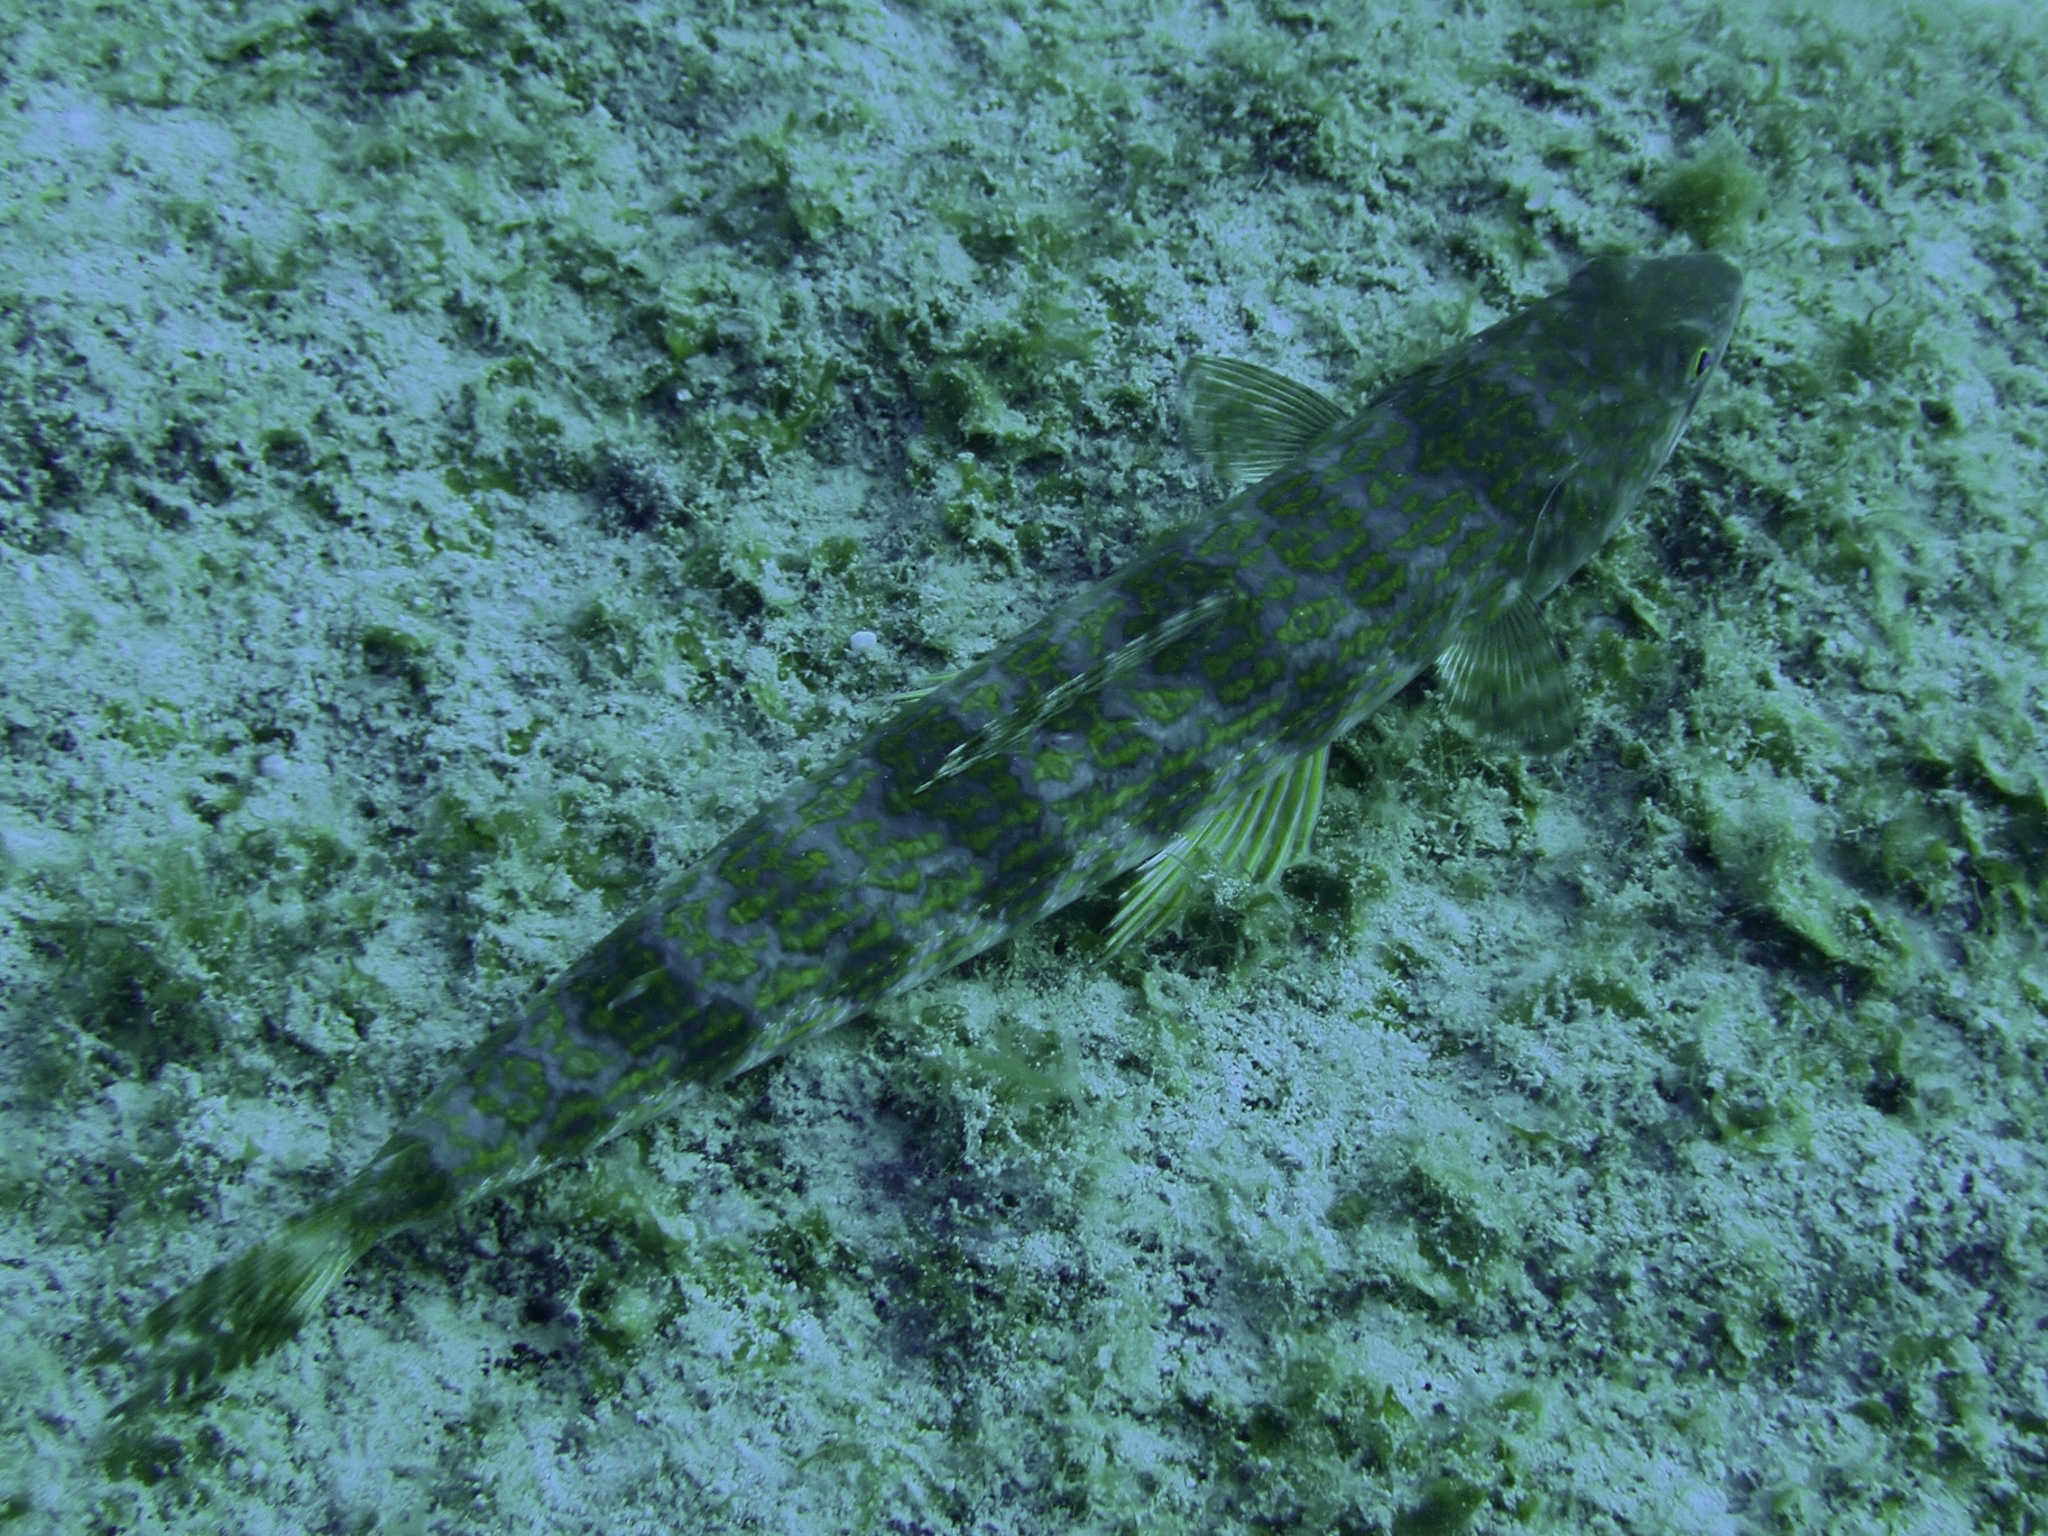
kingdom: Animalia
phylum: Chordata
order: Aulopiformes
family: Synodontidae
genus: Synodus
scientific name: Synodus intermedius
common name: Sand diver
